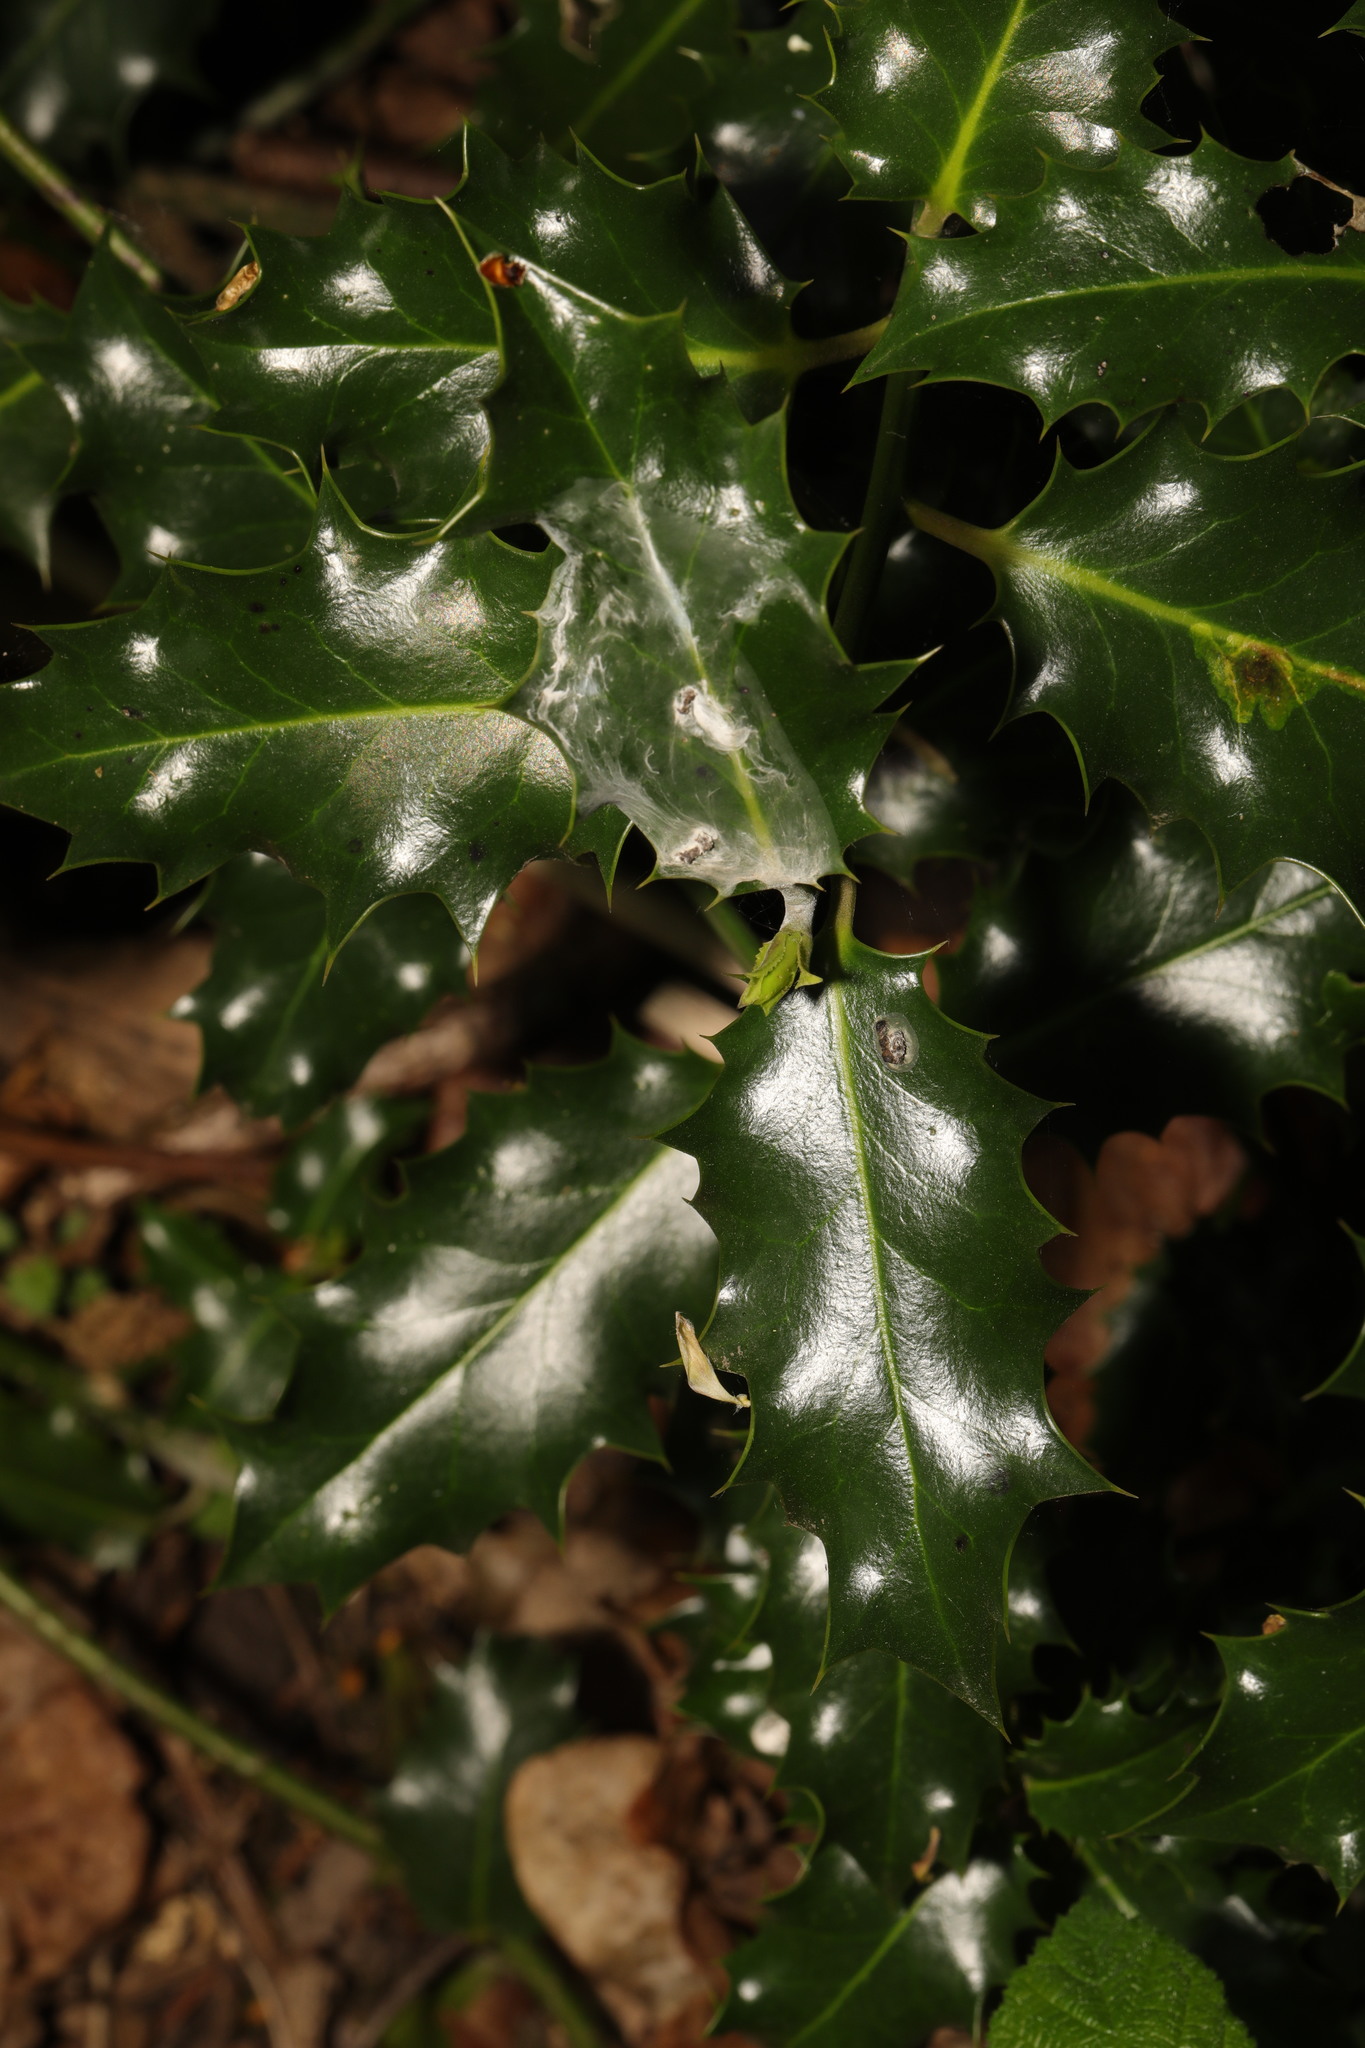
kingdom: Plantae
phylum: Tracheophyta
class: Magnoliopsida
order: Aquifoliales
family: Aquifoliaceae
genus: Ilex
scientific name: Ilex aquifolium
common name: English holly
